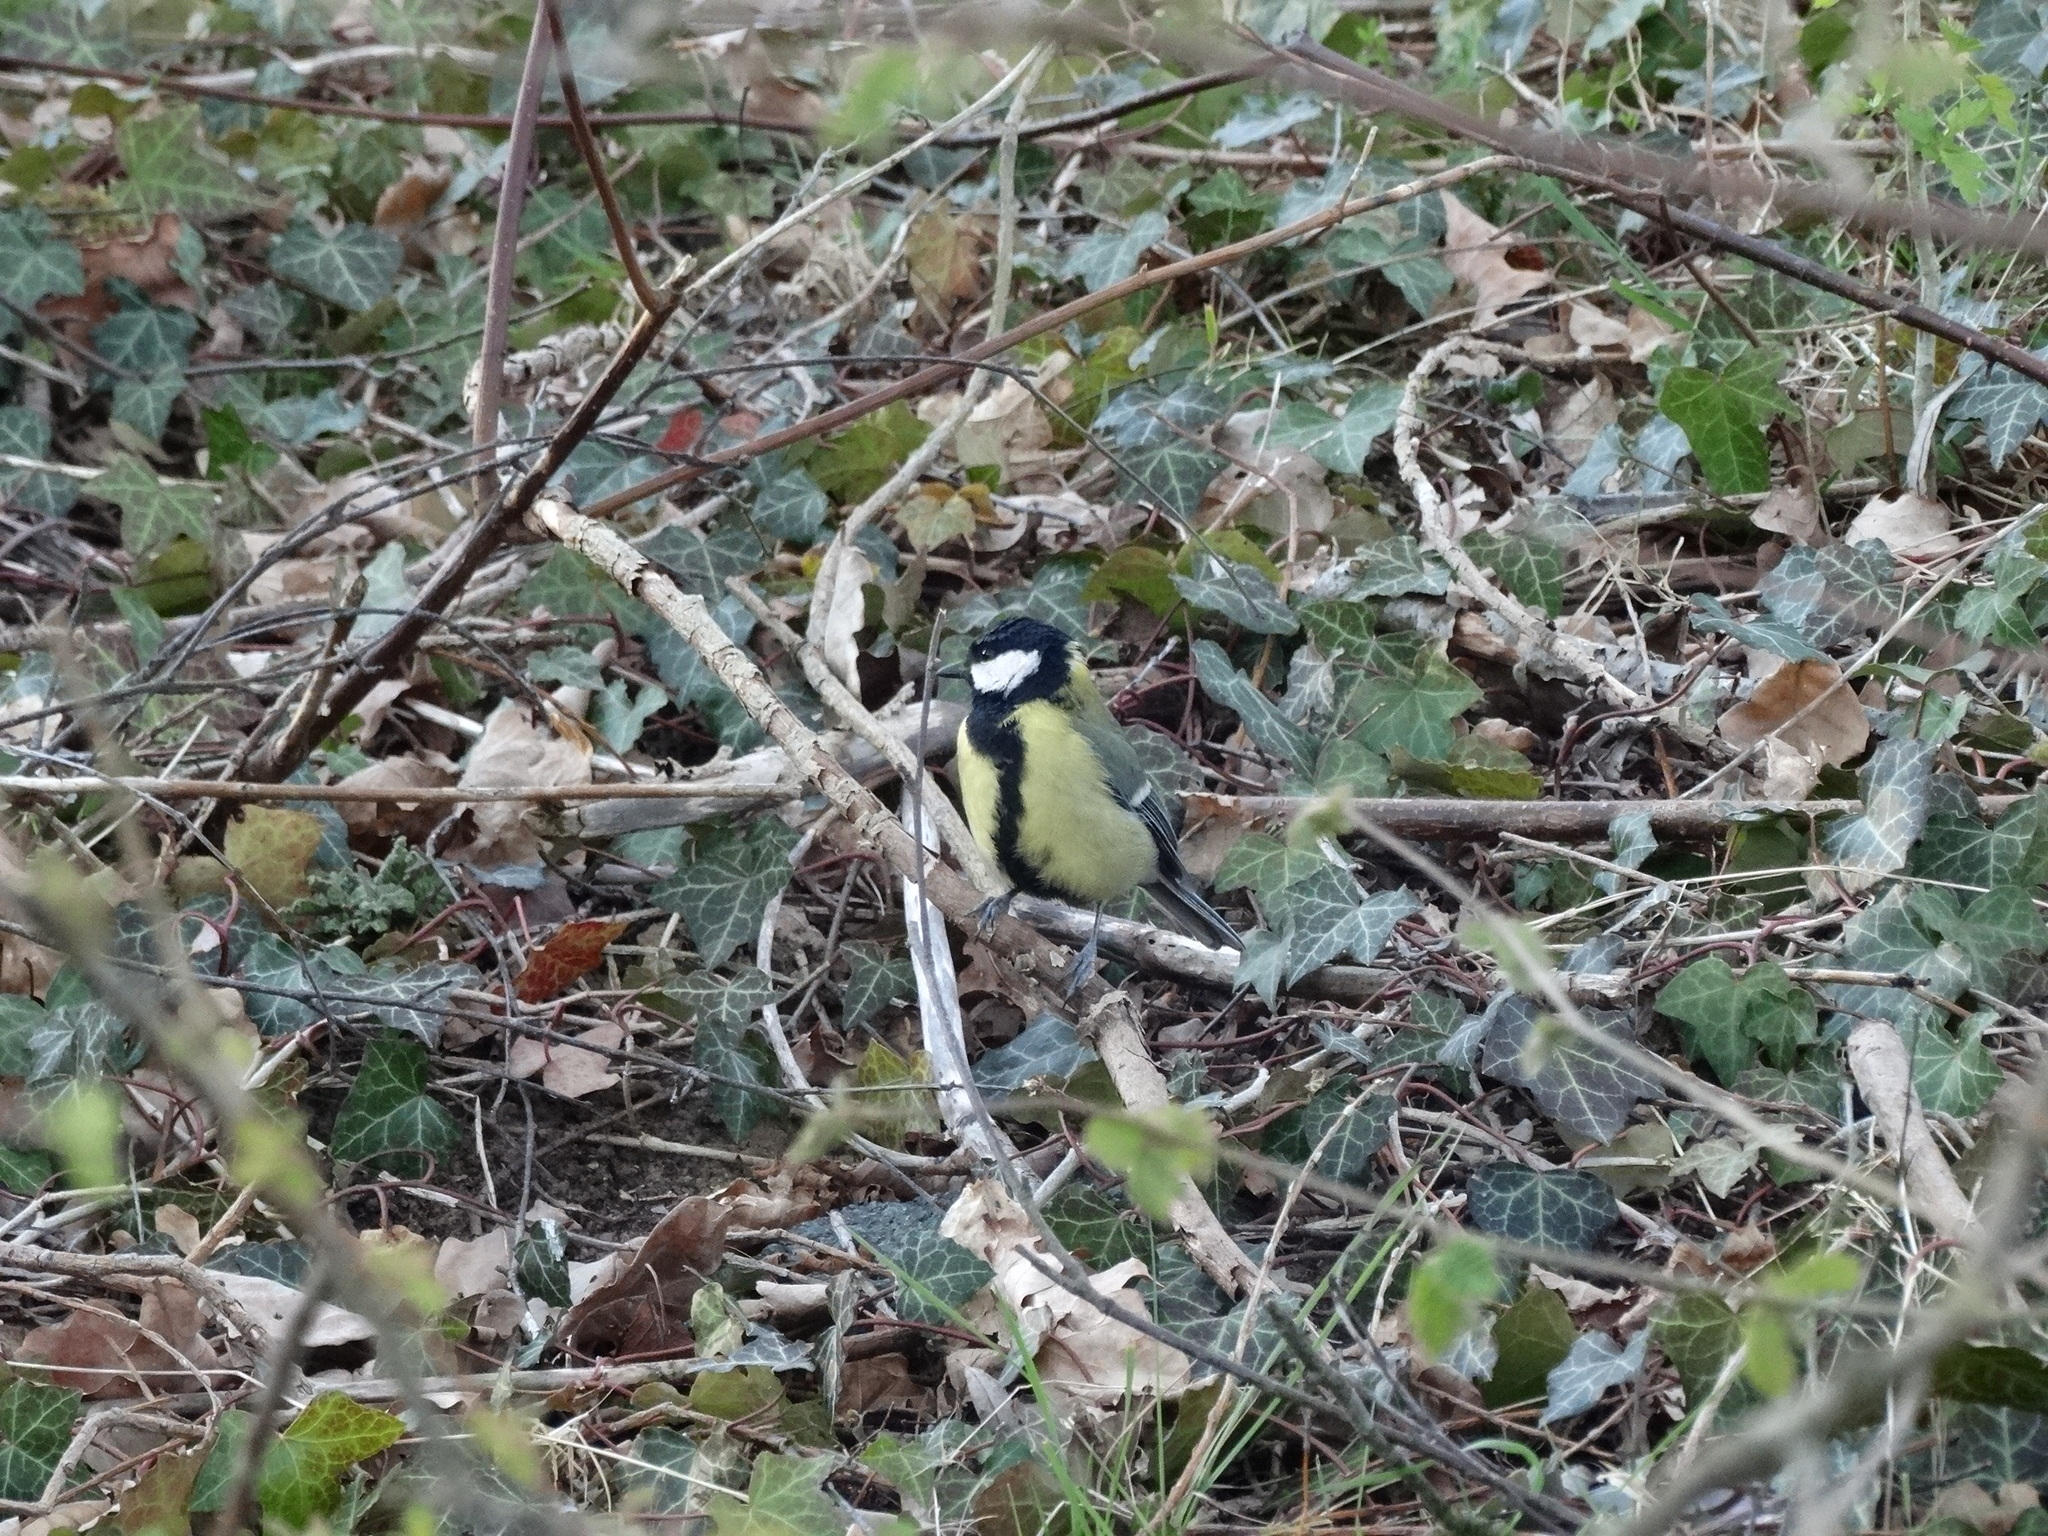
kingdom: Animalia
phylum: Chordata
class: Aves
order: Passeriformes
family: Paridae
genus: Parus
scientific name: Parus major
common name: Great tit
